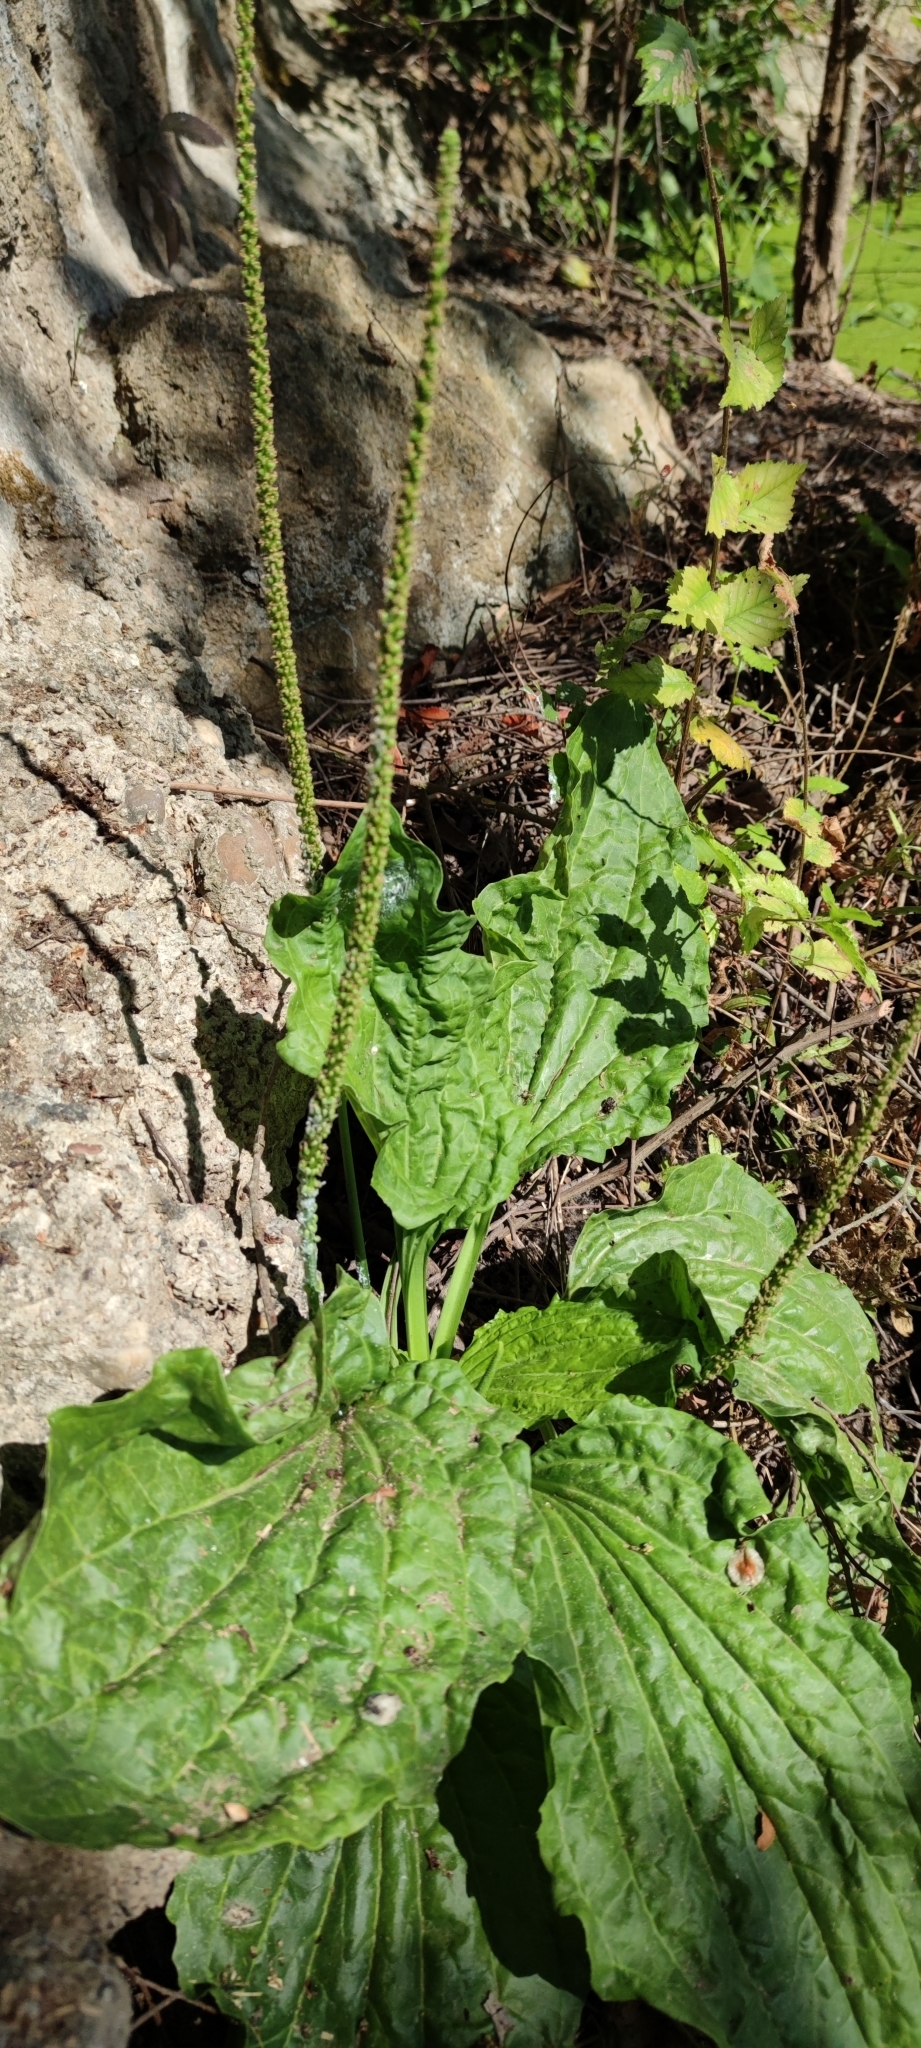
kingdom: Plantae
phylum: Tracheophyta
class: Magnoliopsida
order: Lamiales
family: Plantaginaceae
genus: Plantago
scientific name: Plantago major
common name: Common plantain
